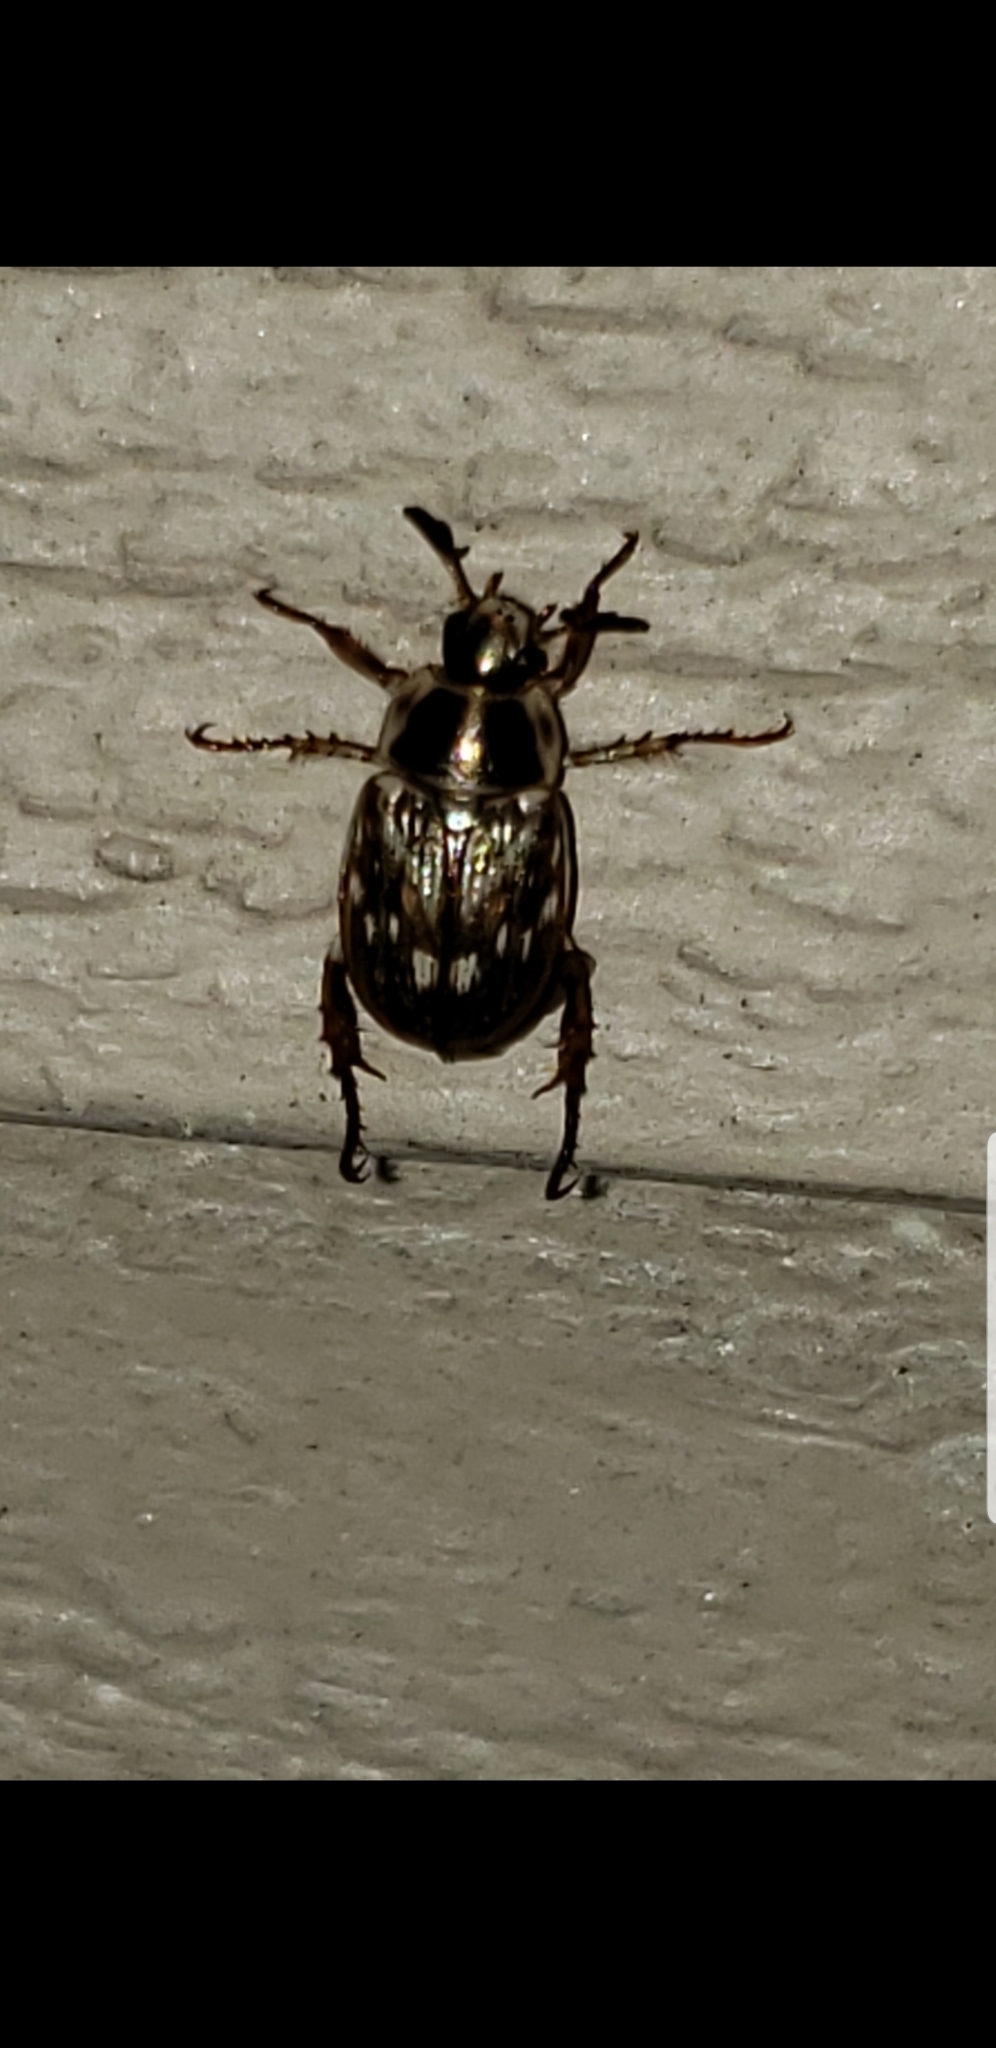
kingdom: Animalia
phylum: Arthropoda
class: Insecta
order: Coleoptera
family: Scarabaeidae
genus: Exomala
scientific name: Exomala orientalis
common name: Oriental beetle
